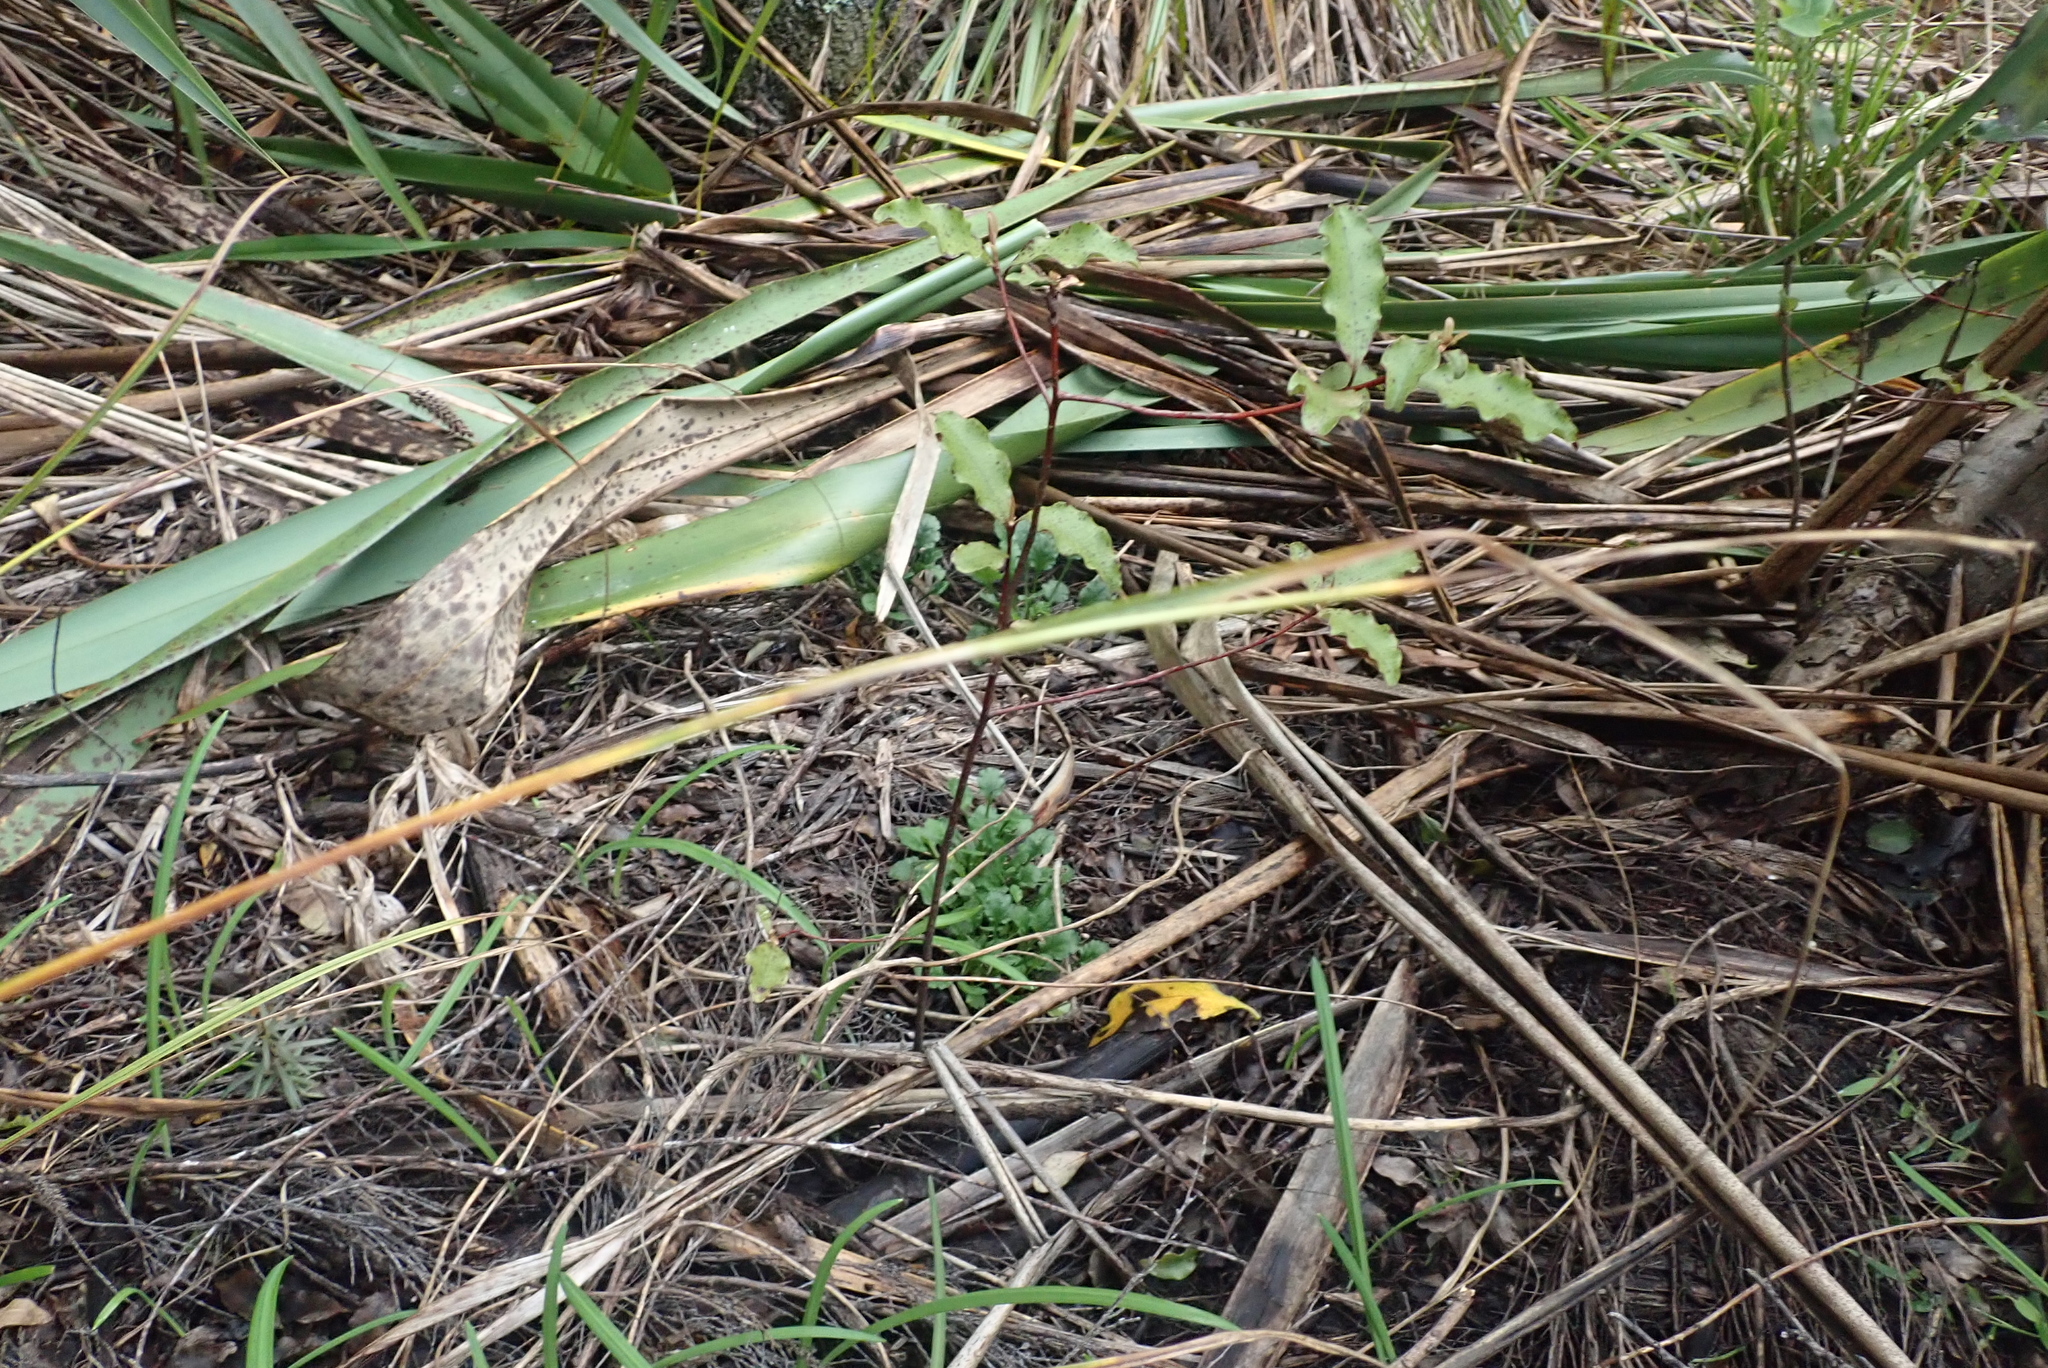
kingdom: Plantae
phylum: Tracheophyta
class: Magnoliopsida
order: Ericales
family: Primulaceae
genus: Myrsine
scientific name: Myrsine australis
